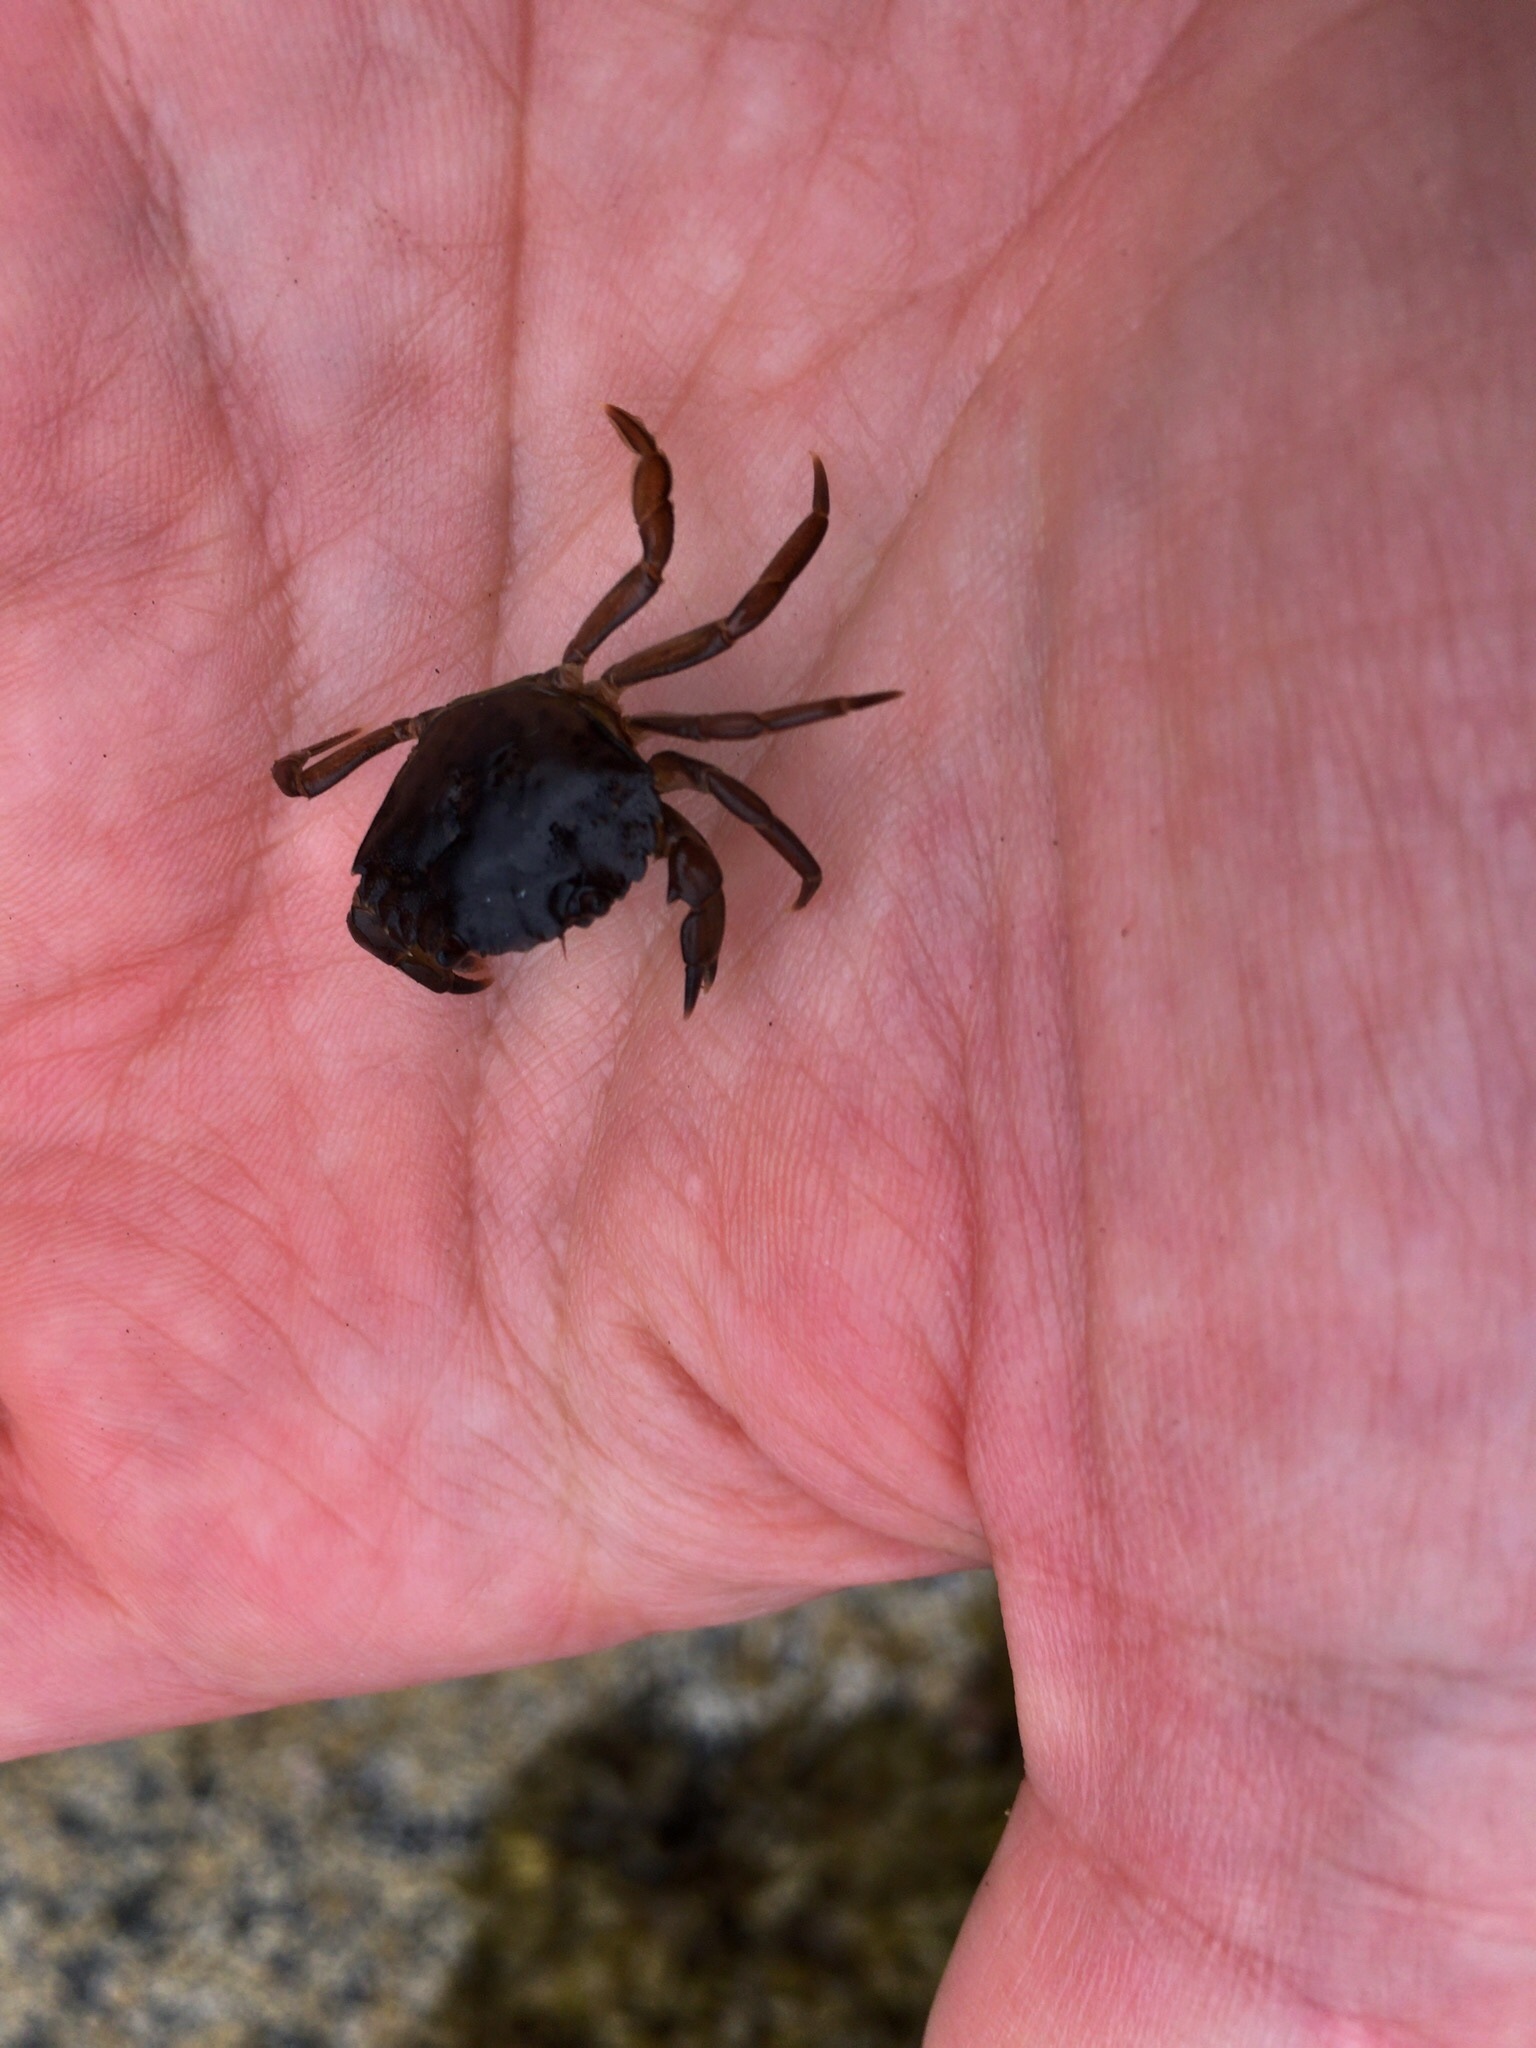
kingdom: Animalia
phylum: Arthropoda
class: Malacostraca
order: Decapoda
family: Carcinidae
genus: Carcinus
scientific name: Carcinus maenas
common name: European green crab
